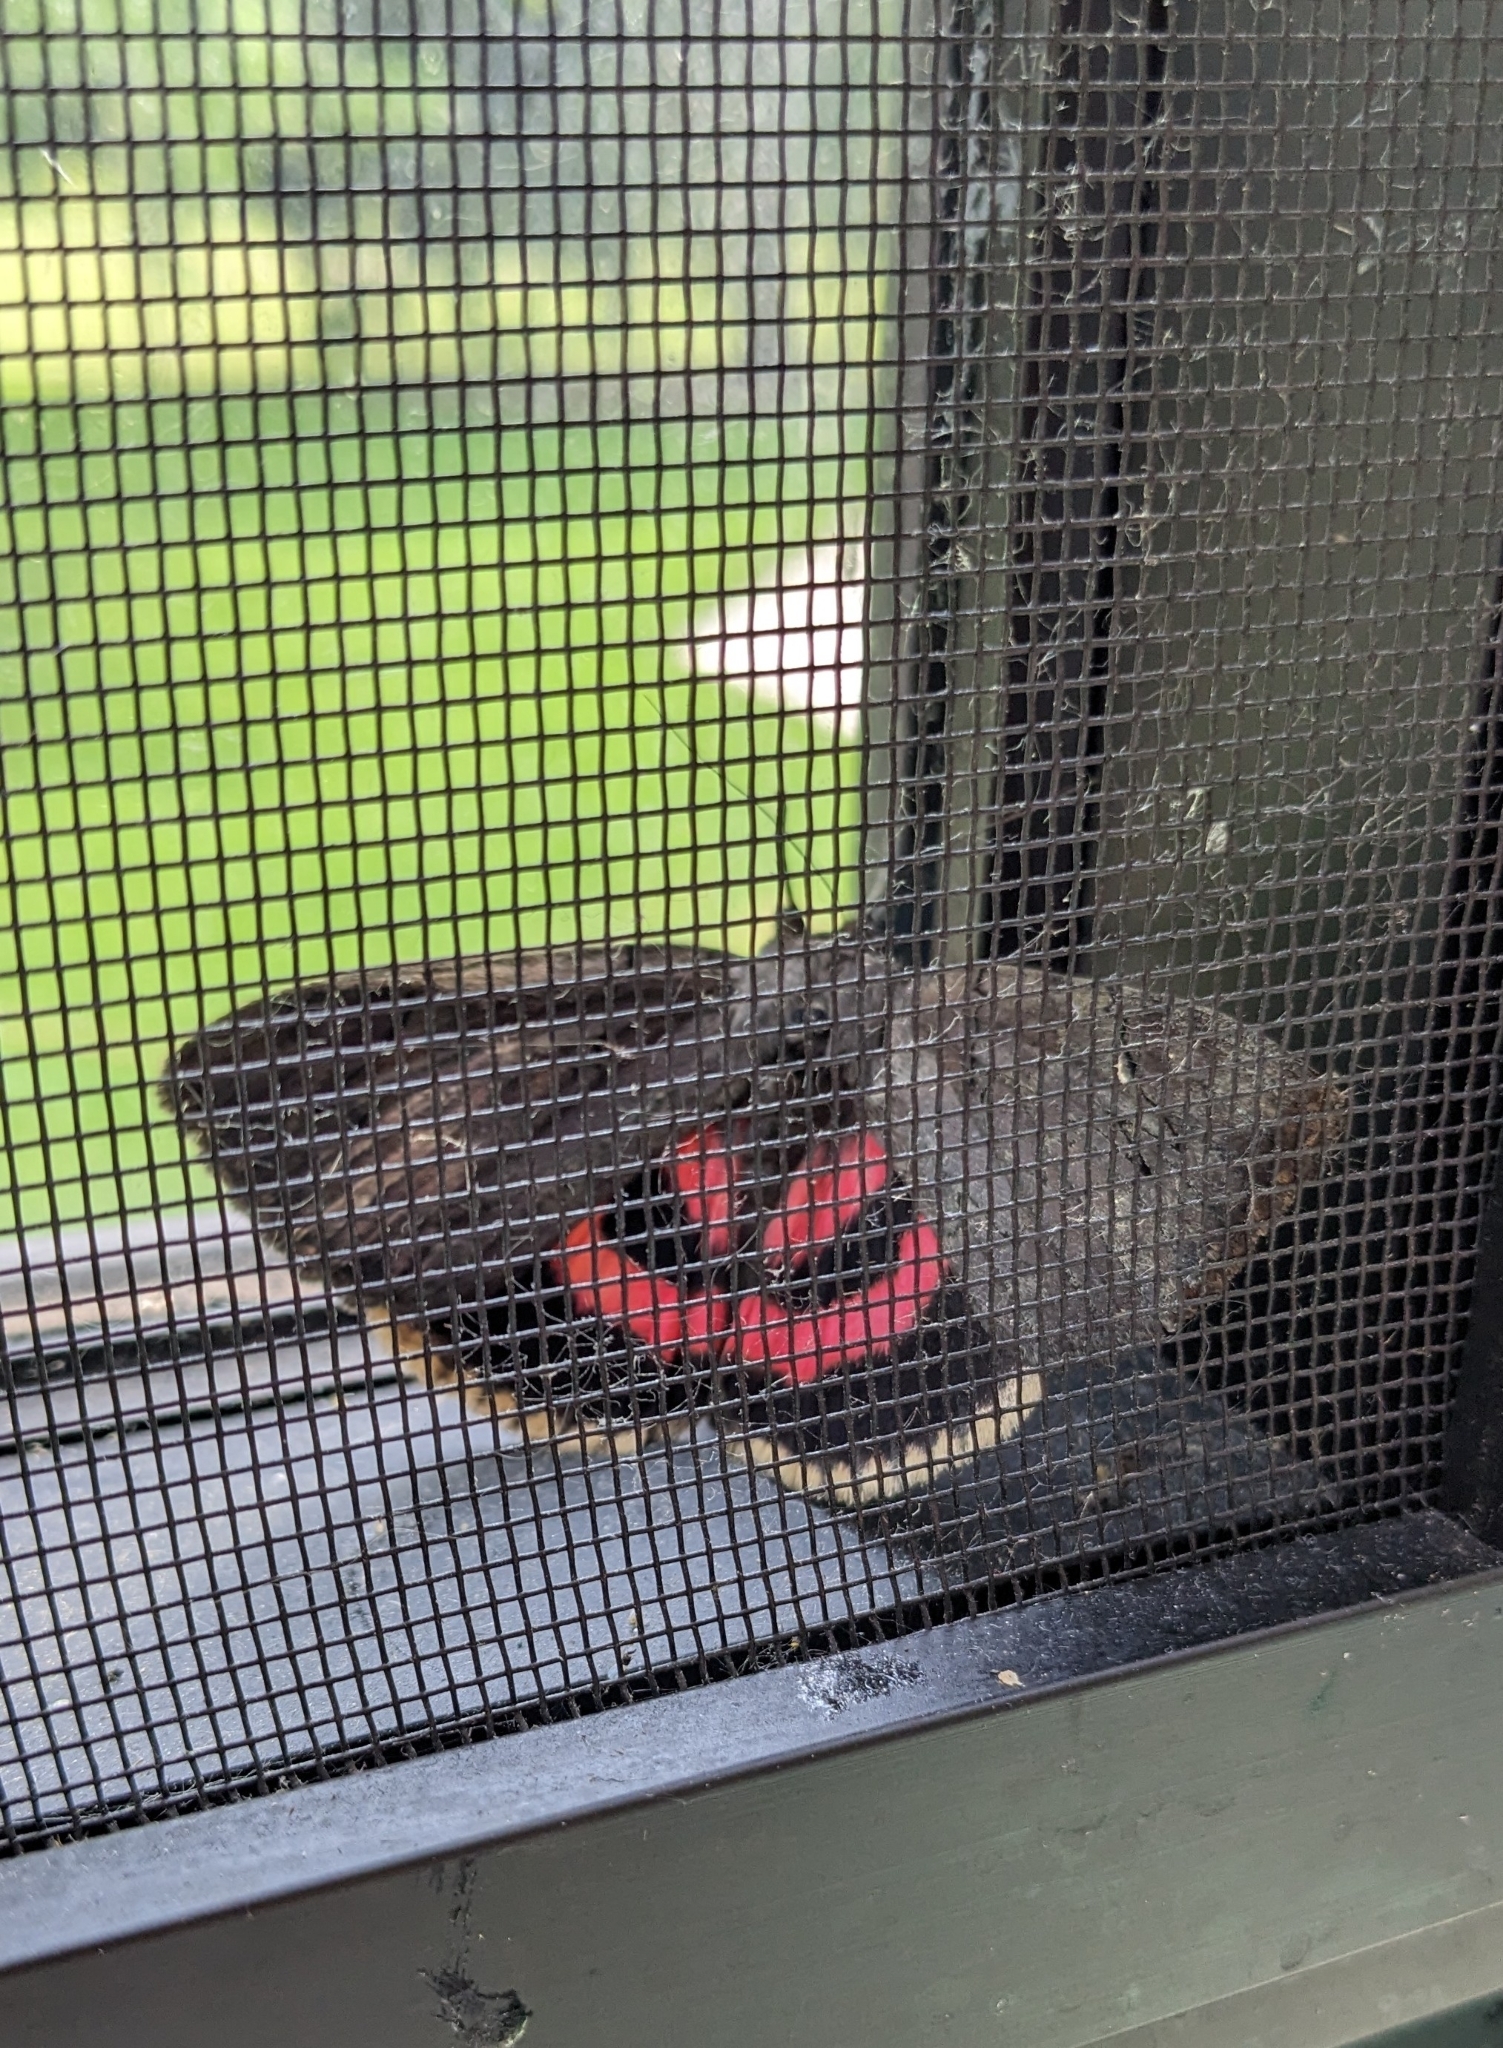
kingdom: Animalia
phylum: Arthropoda
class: Insecta
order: Lepidoptera
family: Erebidae
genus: Catocala
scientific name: Catocala cara
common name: Darling underwing
